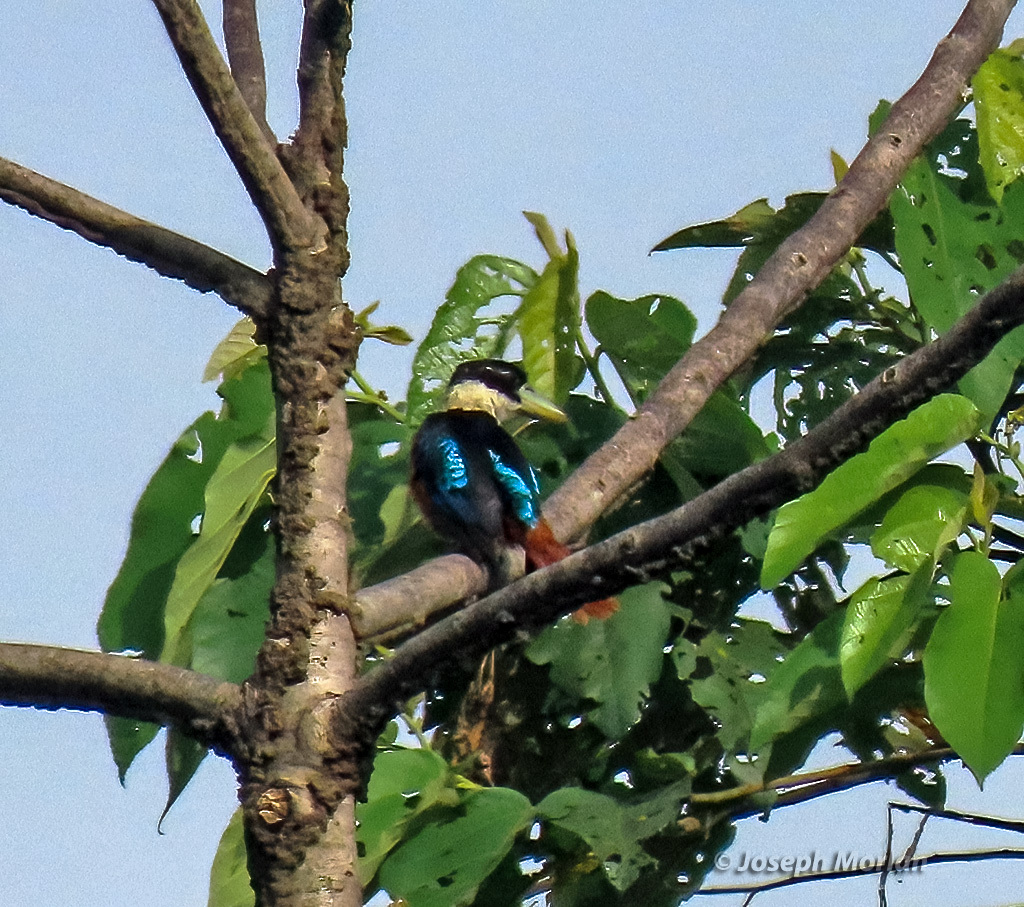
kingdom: Animalia
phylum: Chordata
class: Aves
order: Coraciiformes
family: Alcedinidae
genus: Dacelo
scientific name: Dacelo gaudichaud
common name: Rufous-bellied kookaburra
